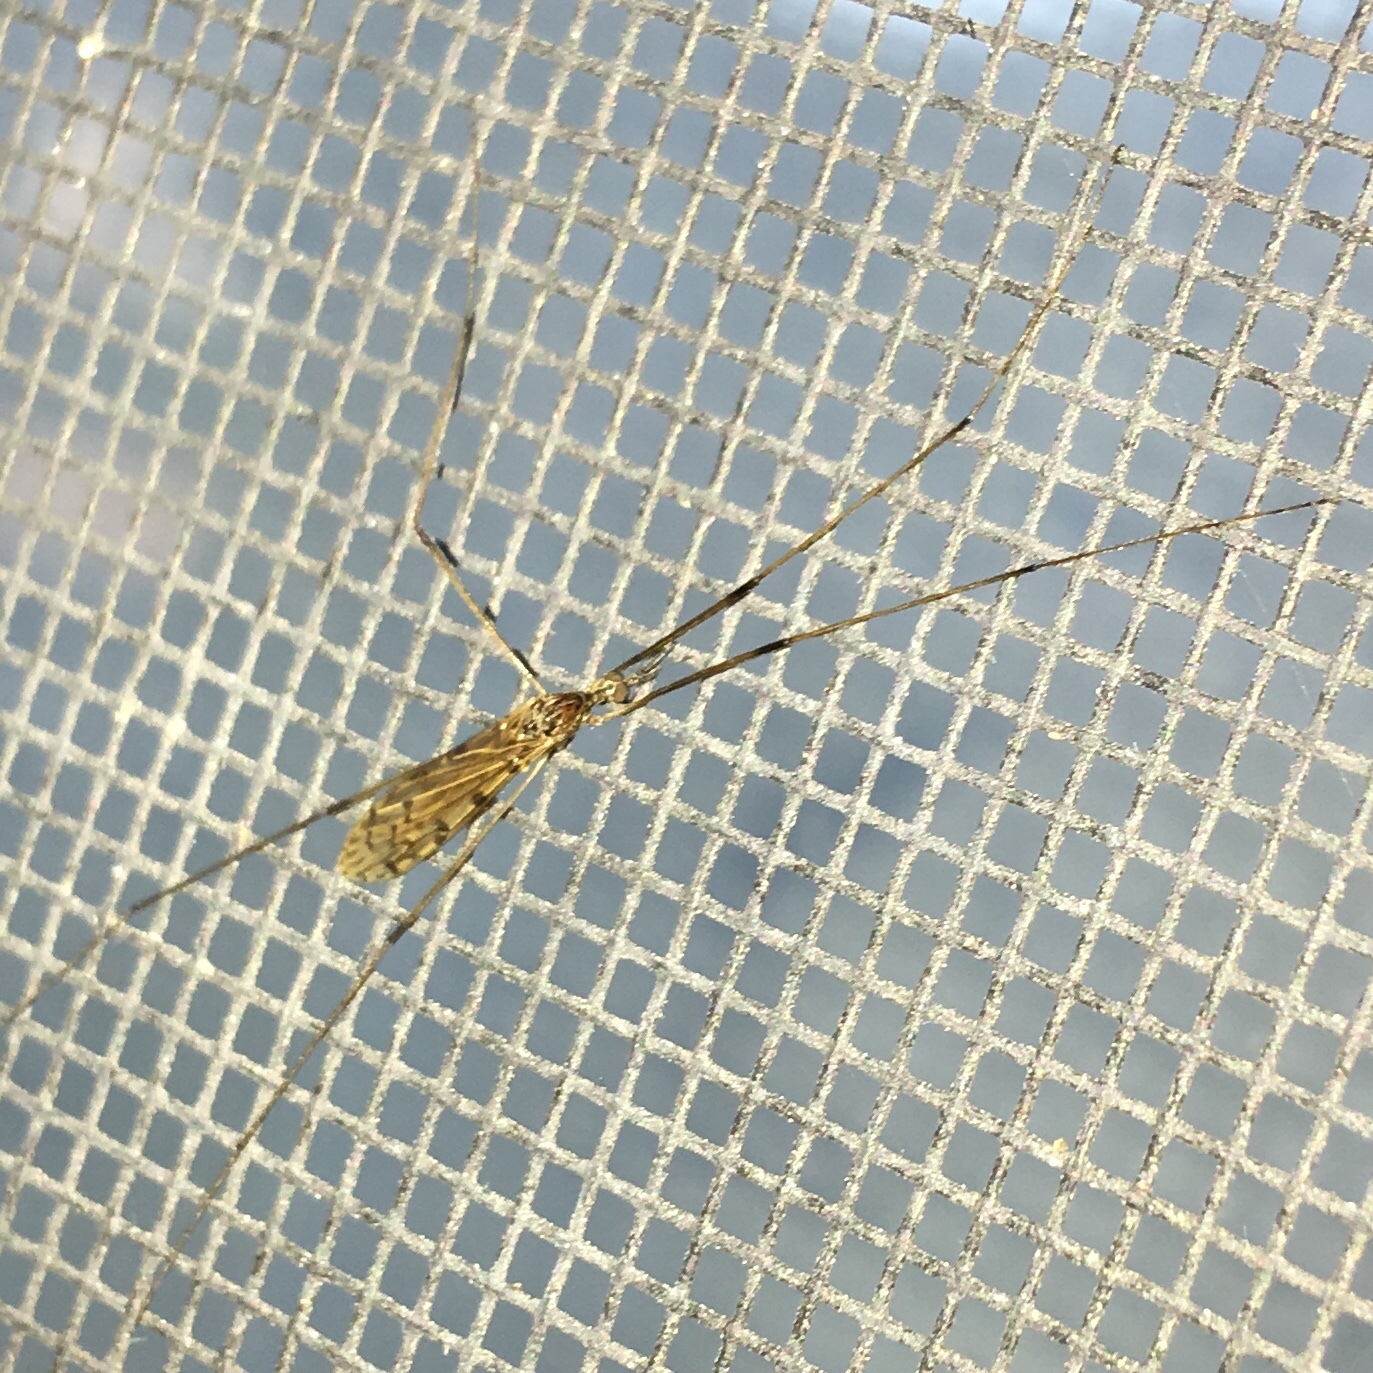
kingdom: Animalia
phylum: Arthropoda
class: Insecta
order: Diptera
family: Limoniidae
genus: Rhipidia
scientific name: Rhipidia domestica
